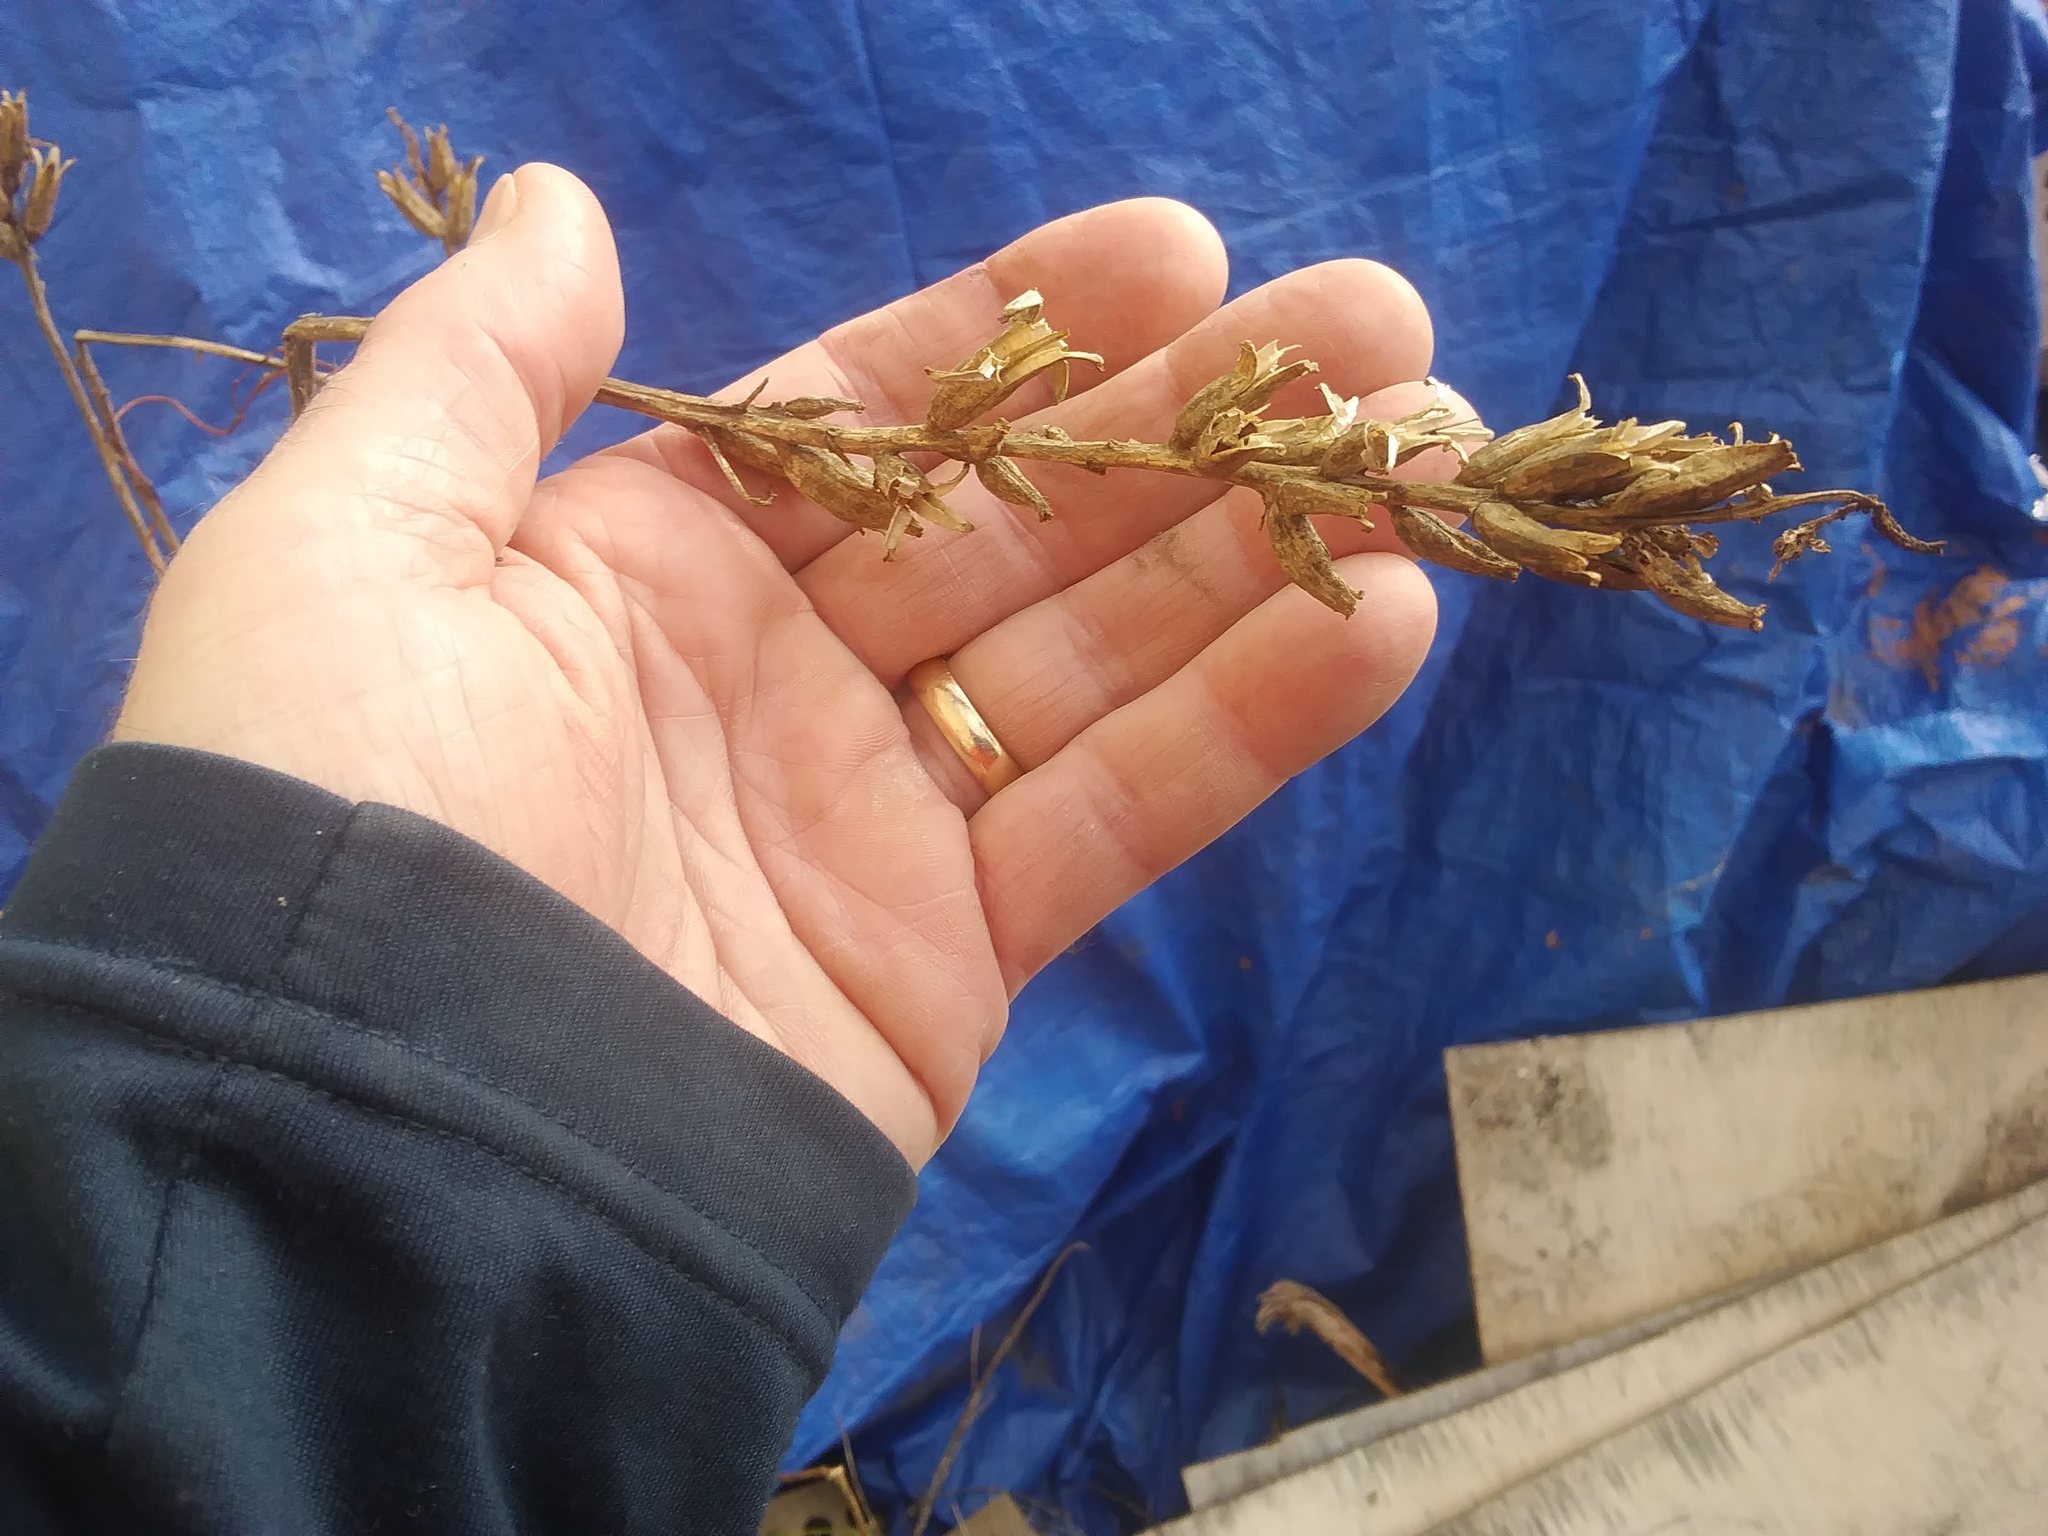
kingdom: Plantae
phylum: Tracheophyta
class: Magnoliopsida
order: Myrtales
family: Onagraceae
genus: Oenothera
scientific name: Oenothera biennis
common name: Common evening-primrose
